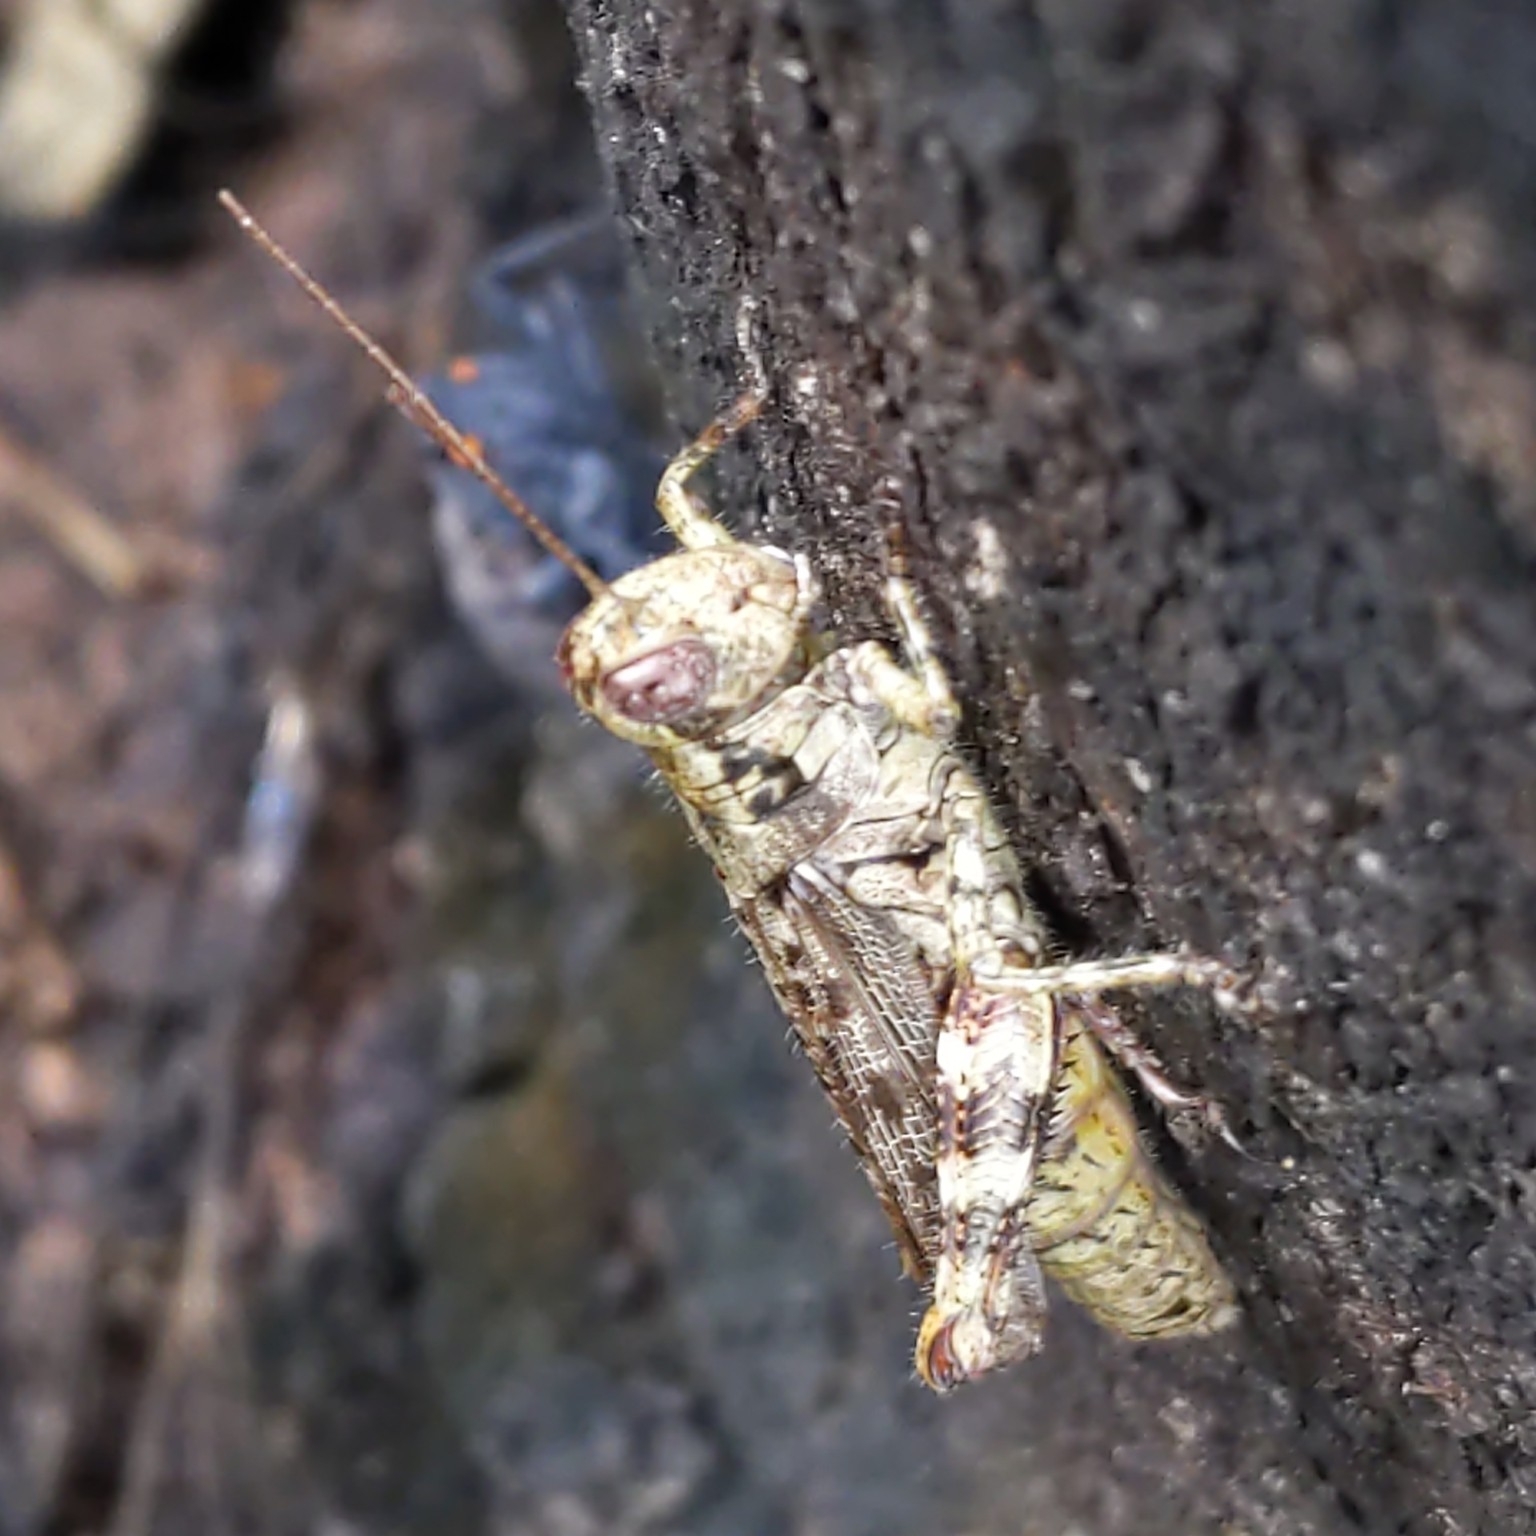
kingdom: Animalia
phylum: Arthropoda
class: Insecta
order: Orthoptera
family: Acrididae
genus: Melanoplus
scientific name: Melanoplus punctulatus
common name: Pine-tree spur-throat grasshopper
